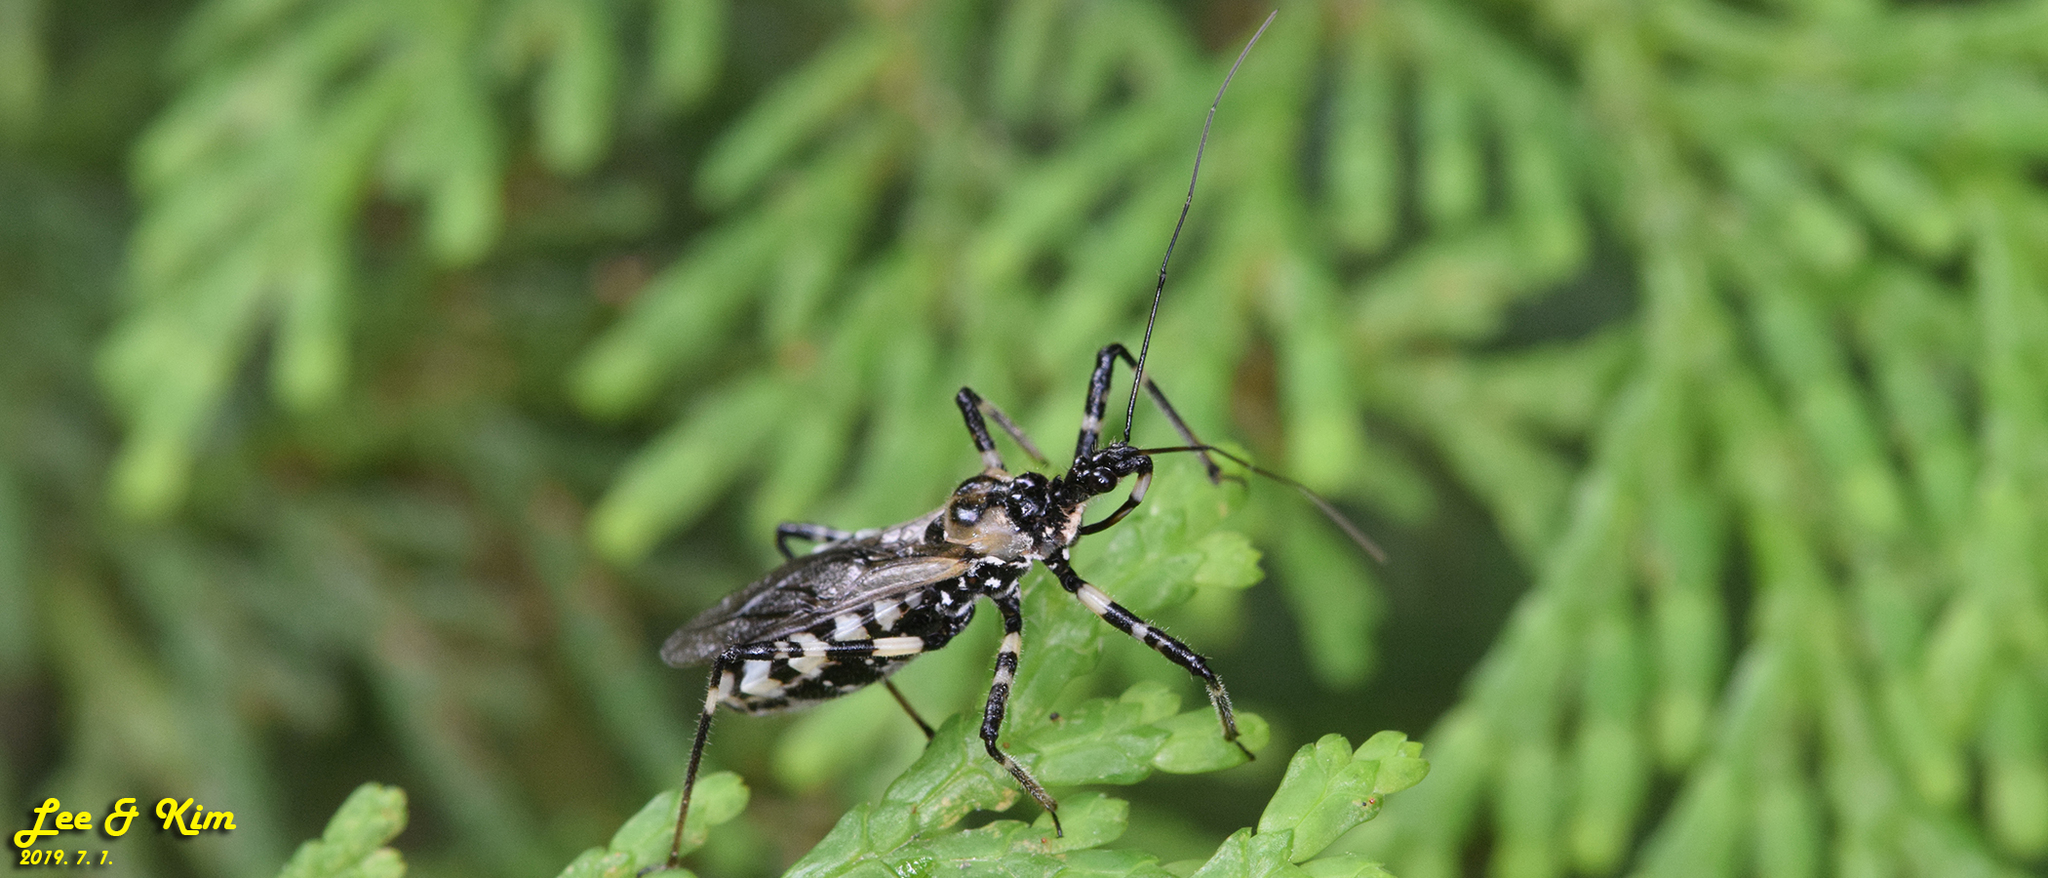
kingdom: Animalia
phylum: Arthropoda
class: Insecta
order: Hemiptera
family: Reduviidae
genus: Sphedanolestes
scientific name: Sphedanolestes impressicollis
